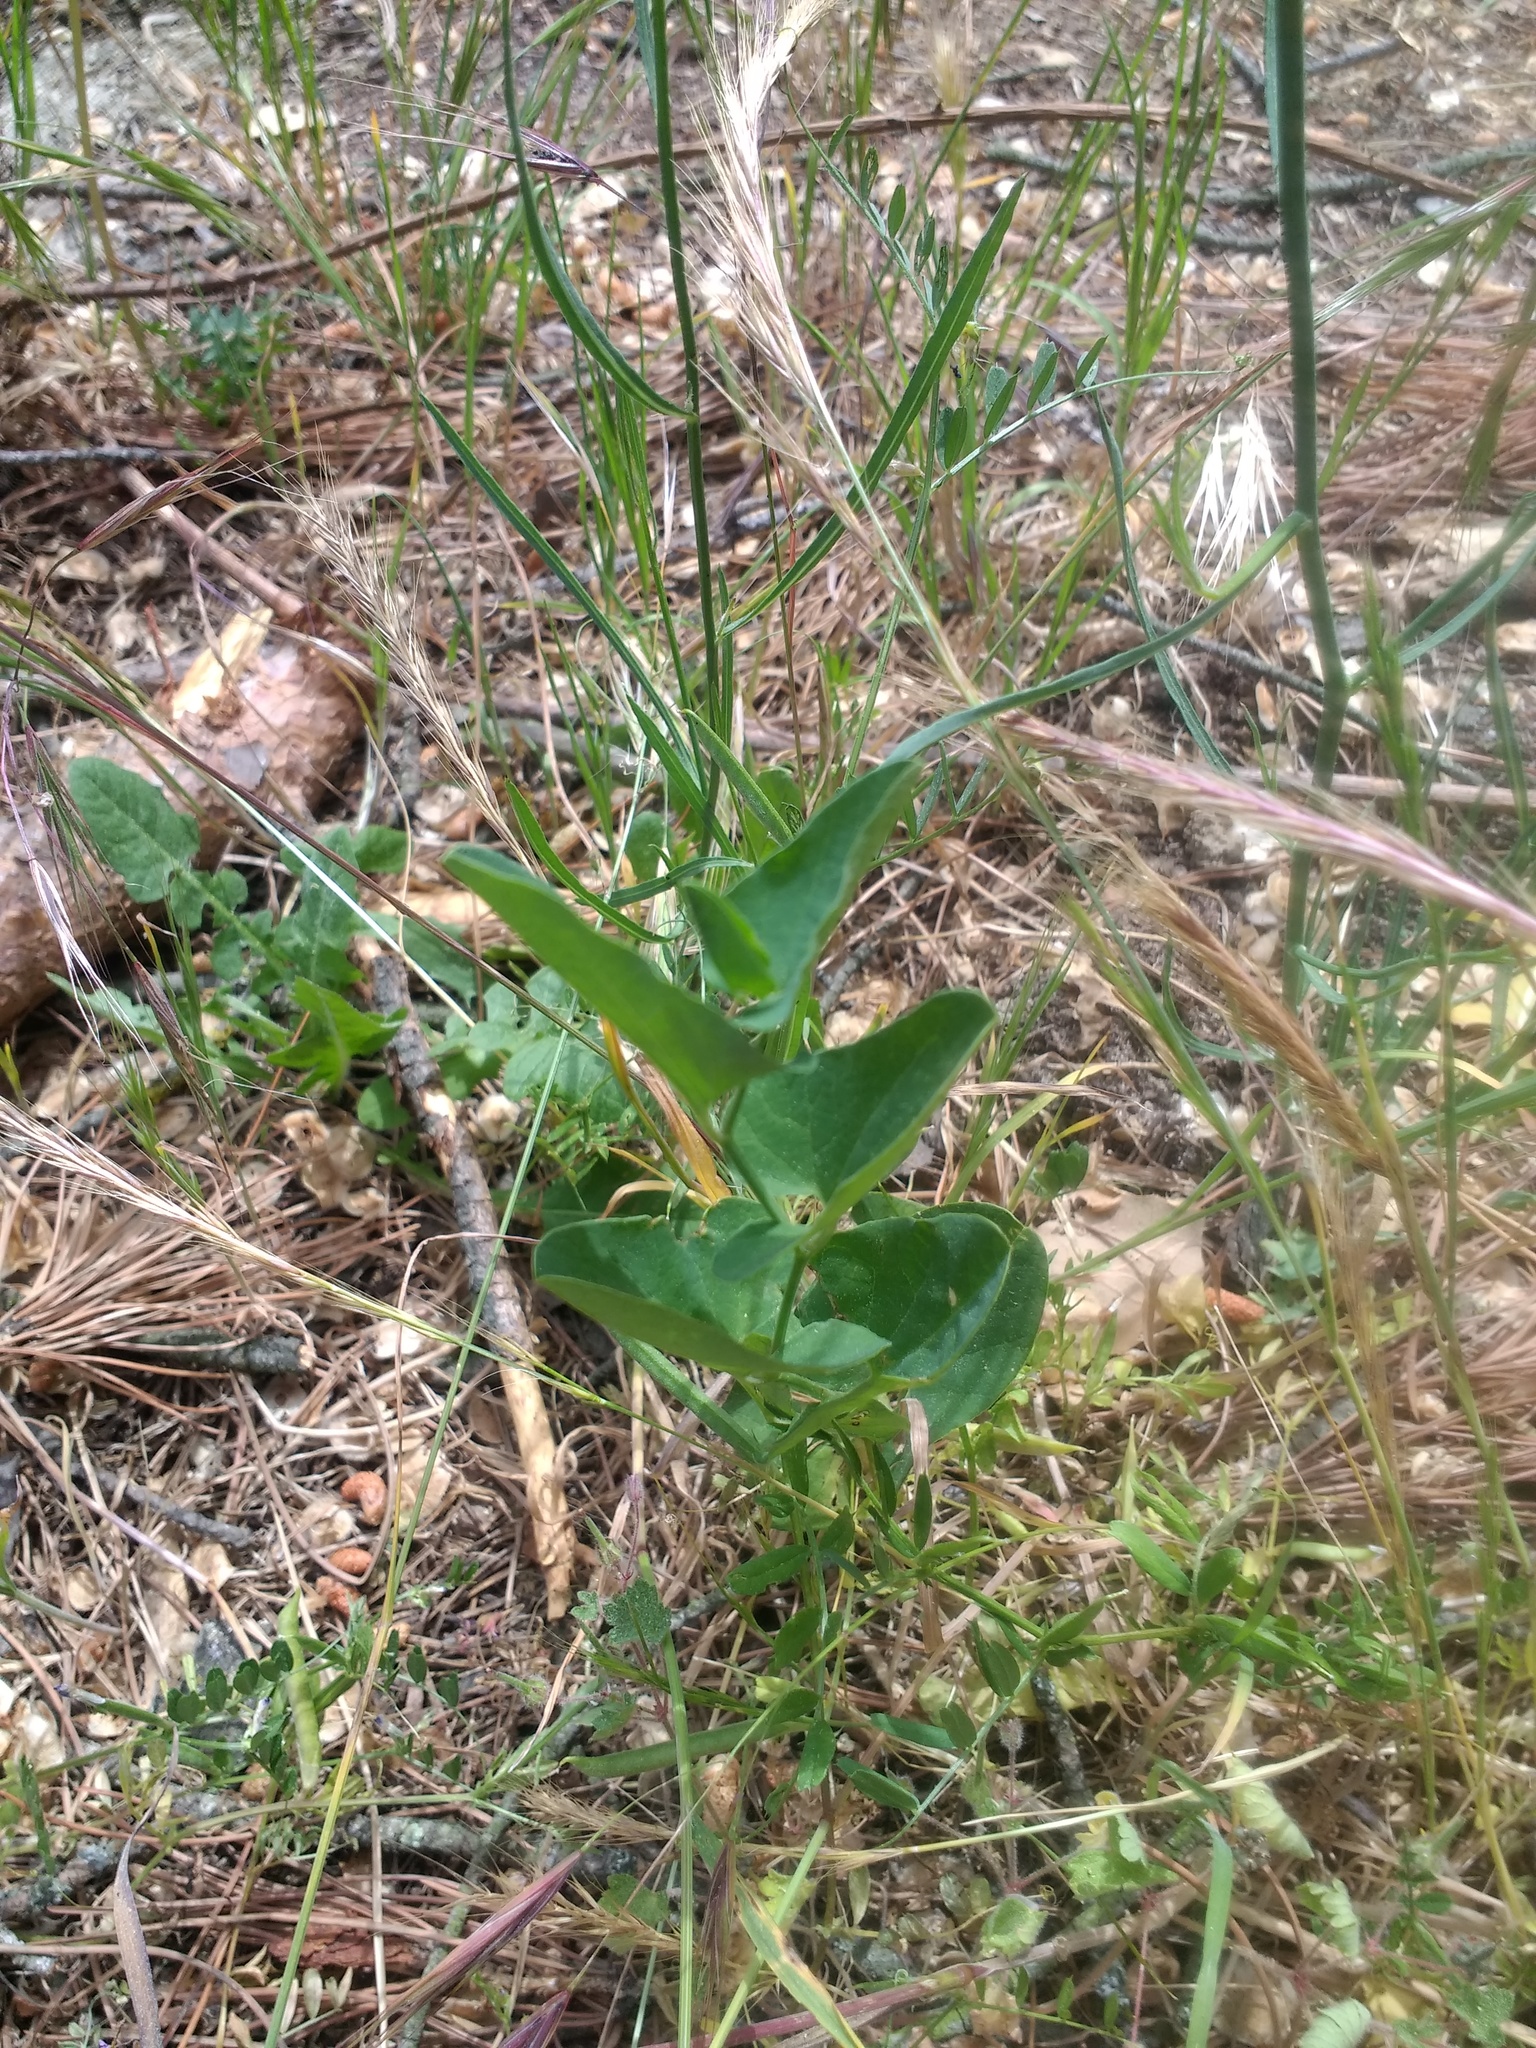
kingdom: Plantae
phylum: Tracheophyta
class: Magnoliopsida
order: Piperales
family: Aristolochiaceae
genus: Aristolochia
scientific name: Aristolochia paucinervis
